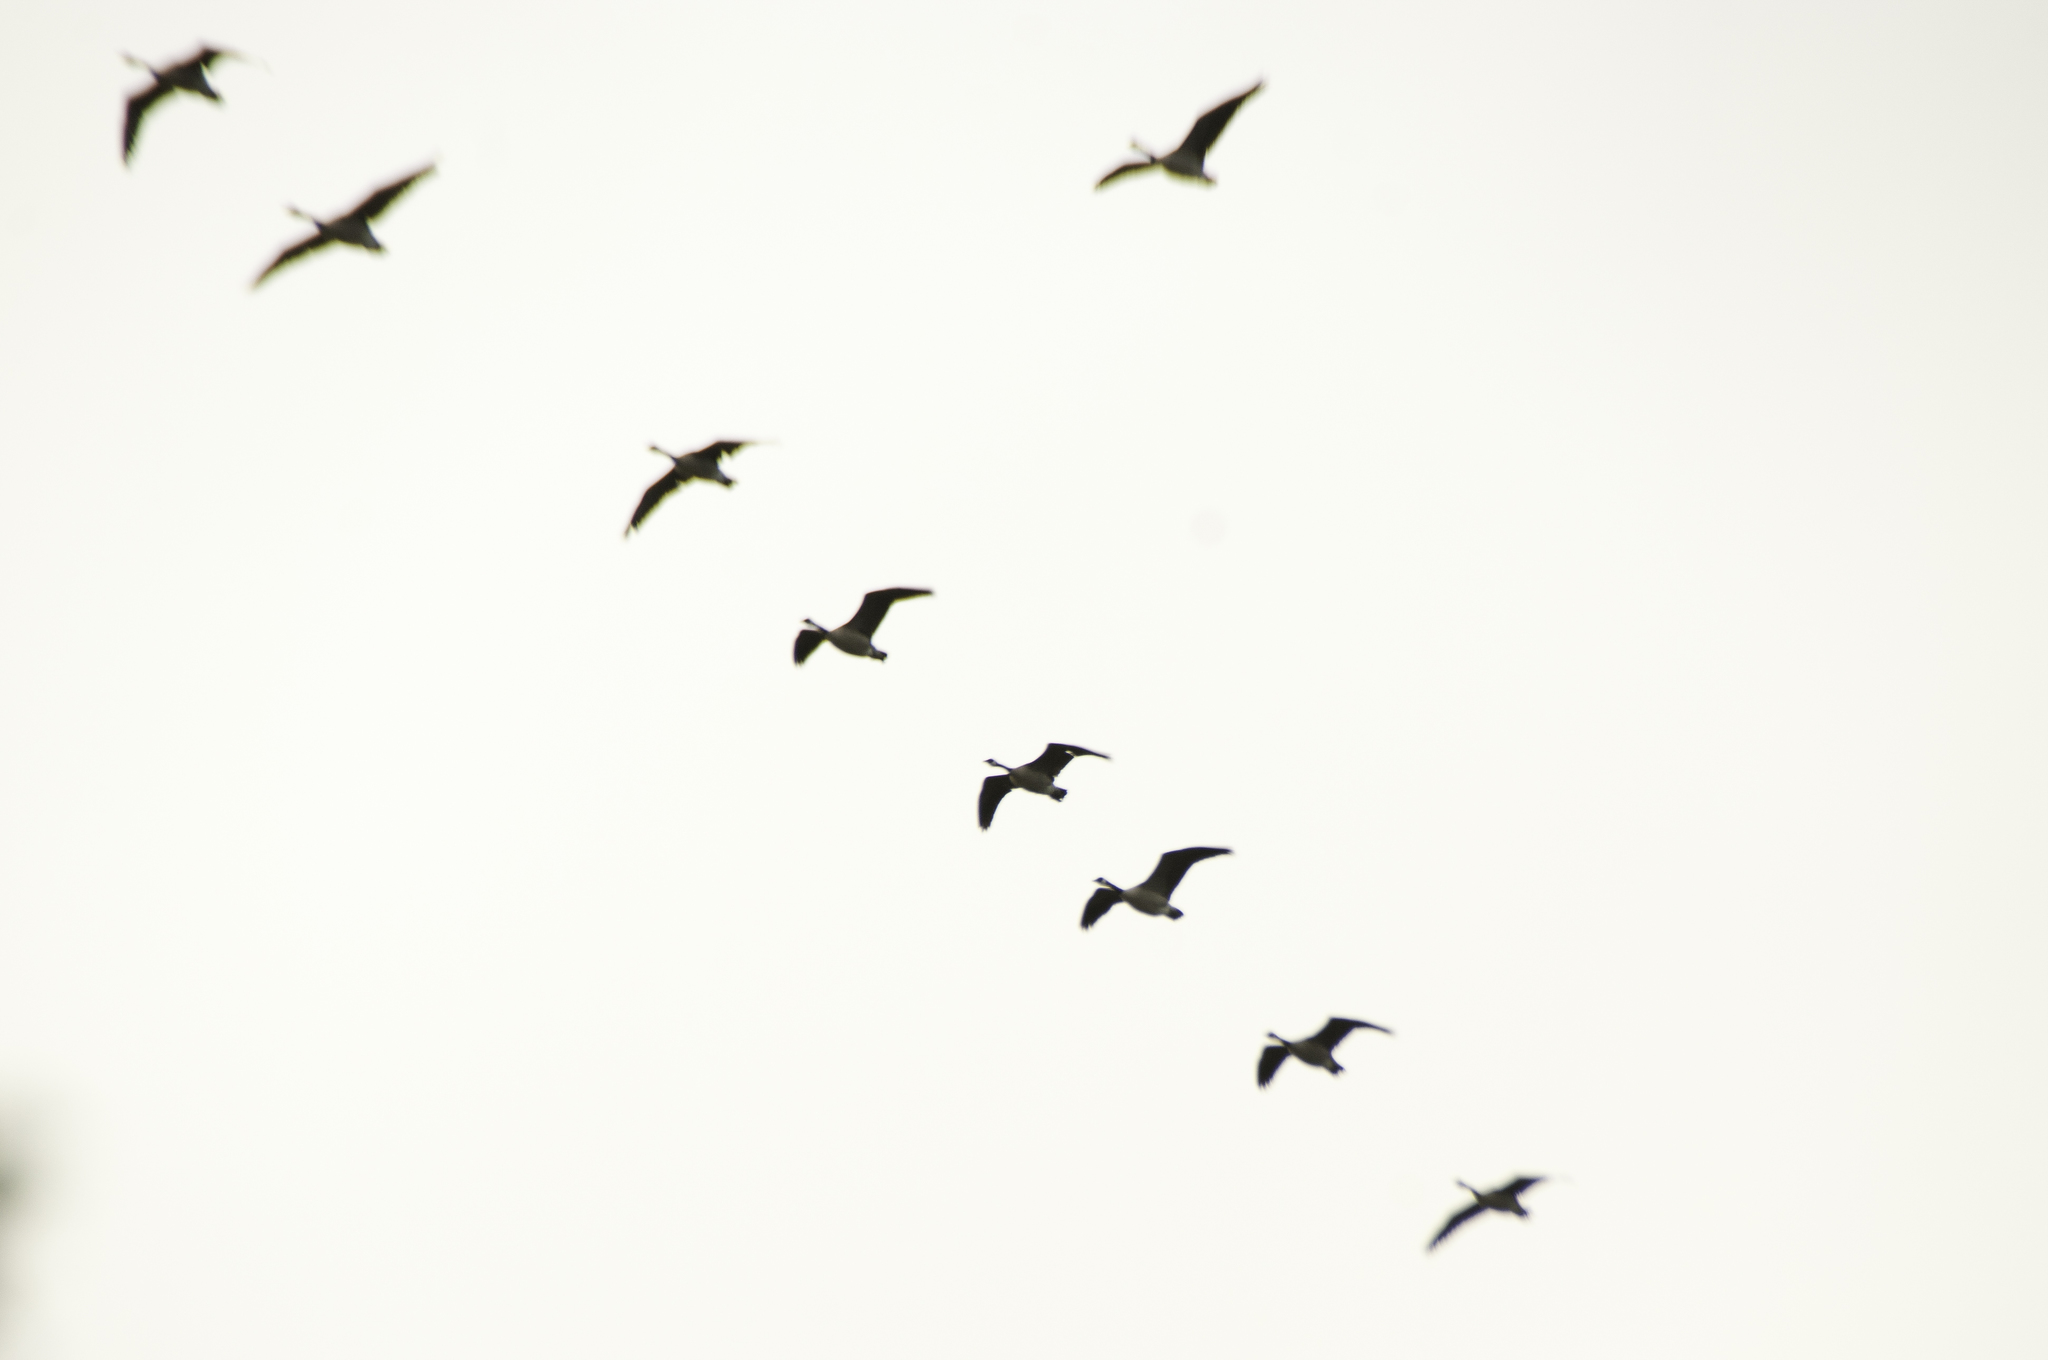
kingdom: Animalia
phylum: Chordata
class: Aves
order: Anseriformes
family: Anatidae
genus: Branta
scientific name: Branta canadensis
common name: Canada goose
